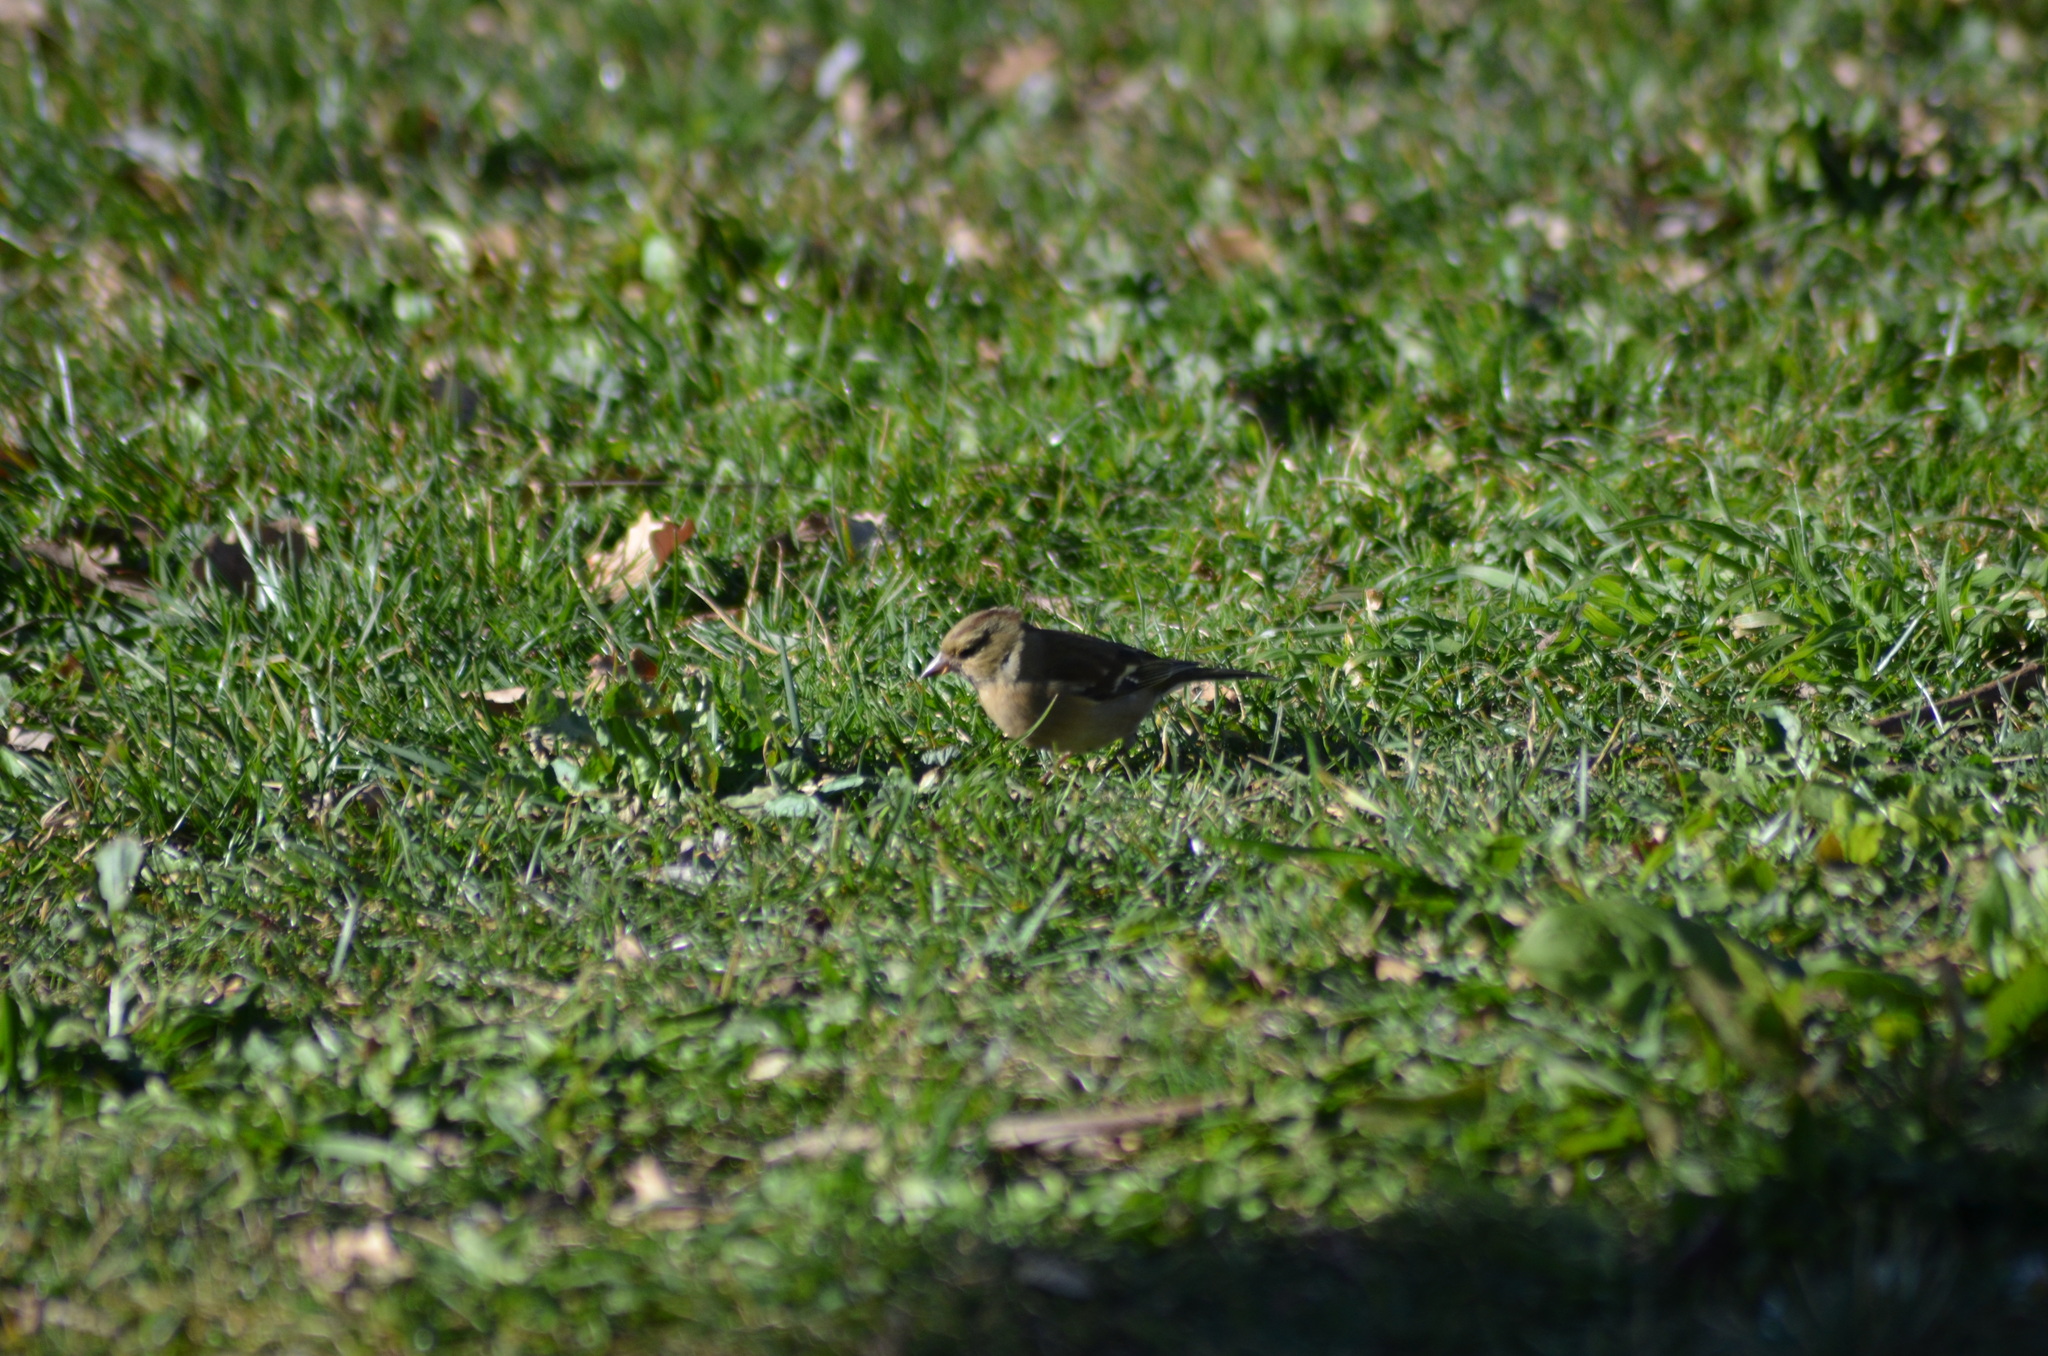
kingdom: Animalia
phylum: Chordata
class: Aves
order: Passeriformes
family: Fringillidae
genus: Fringilla
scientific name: Fringilla coelebs
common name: Common chaffinch
